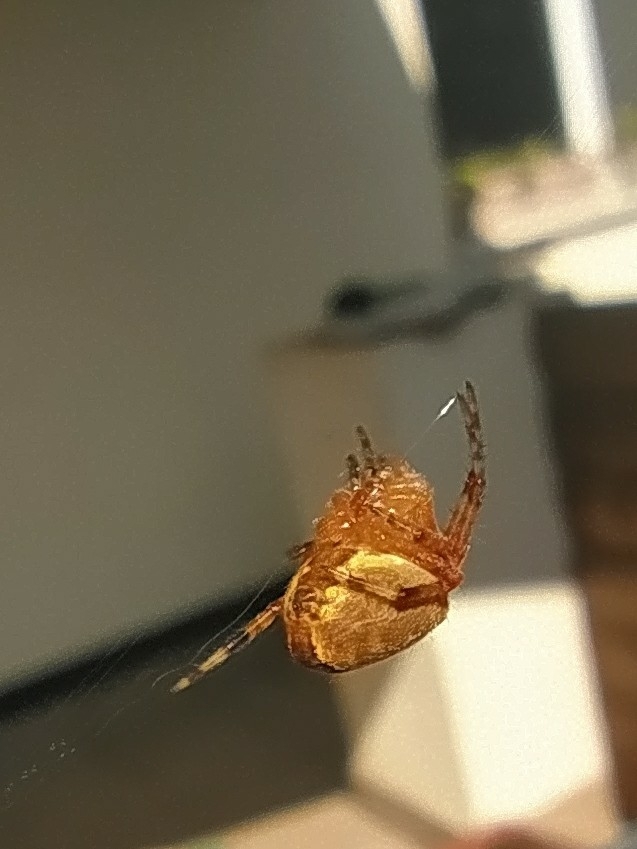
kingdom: Animalia
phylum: Arthropoda
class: Arachnida
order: Araneae
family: Araneidae
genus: Araneus
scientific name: Araneus diadematus
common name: Cross orbweaver
